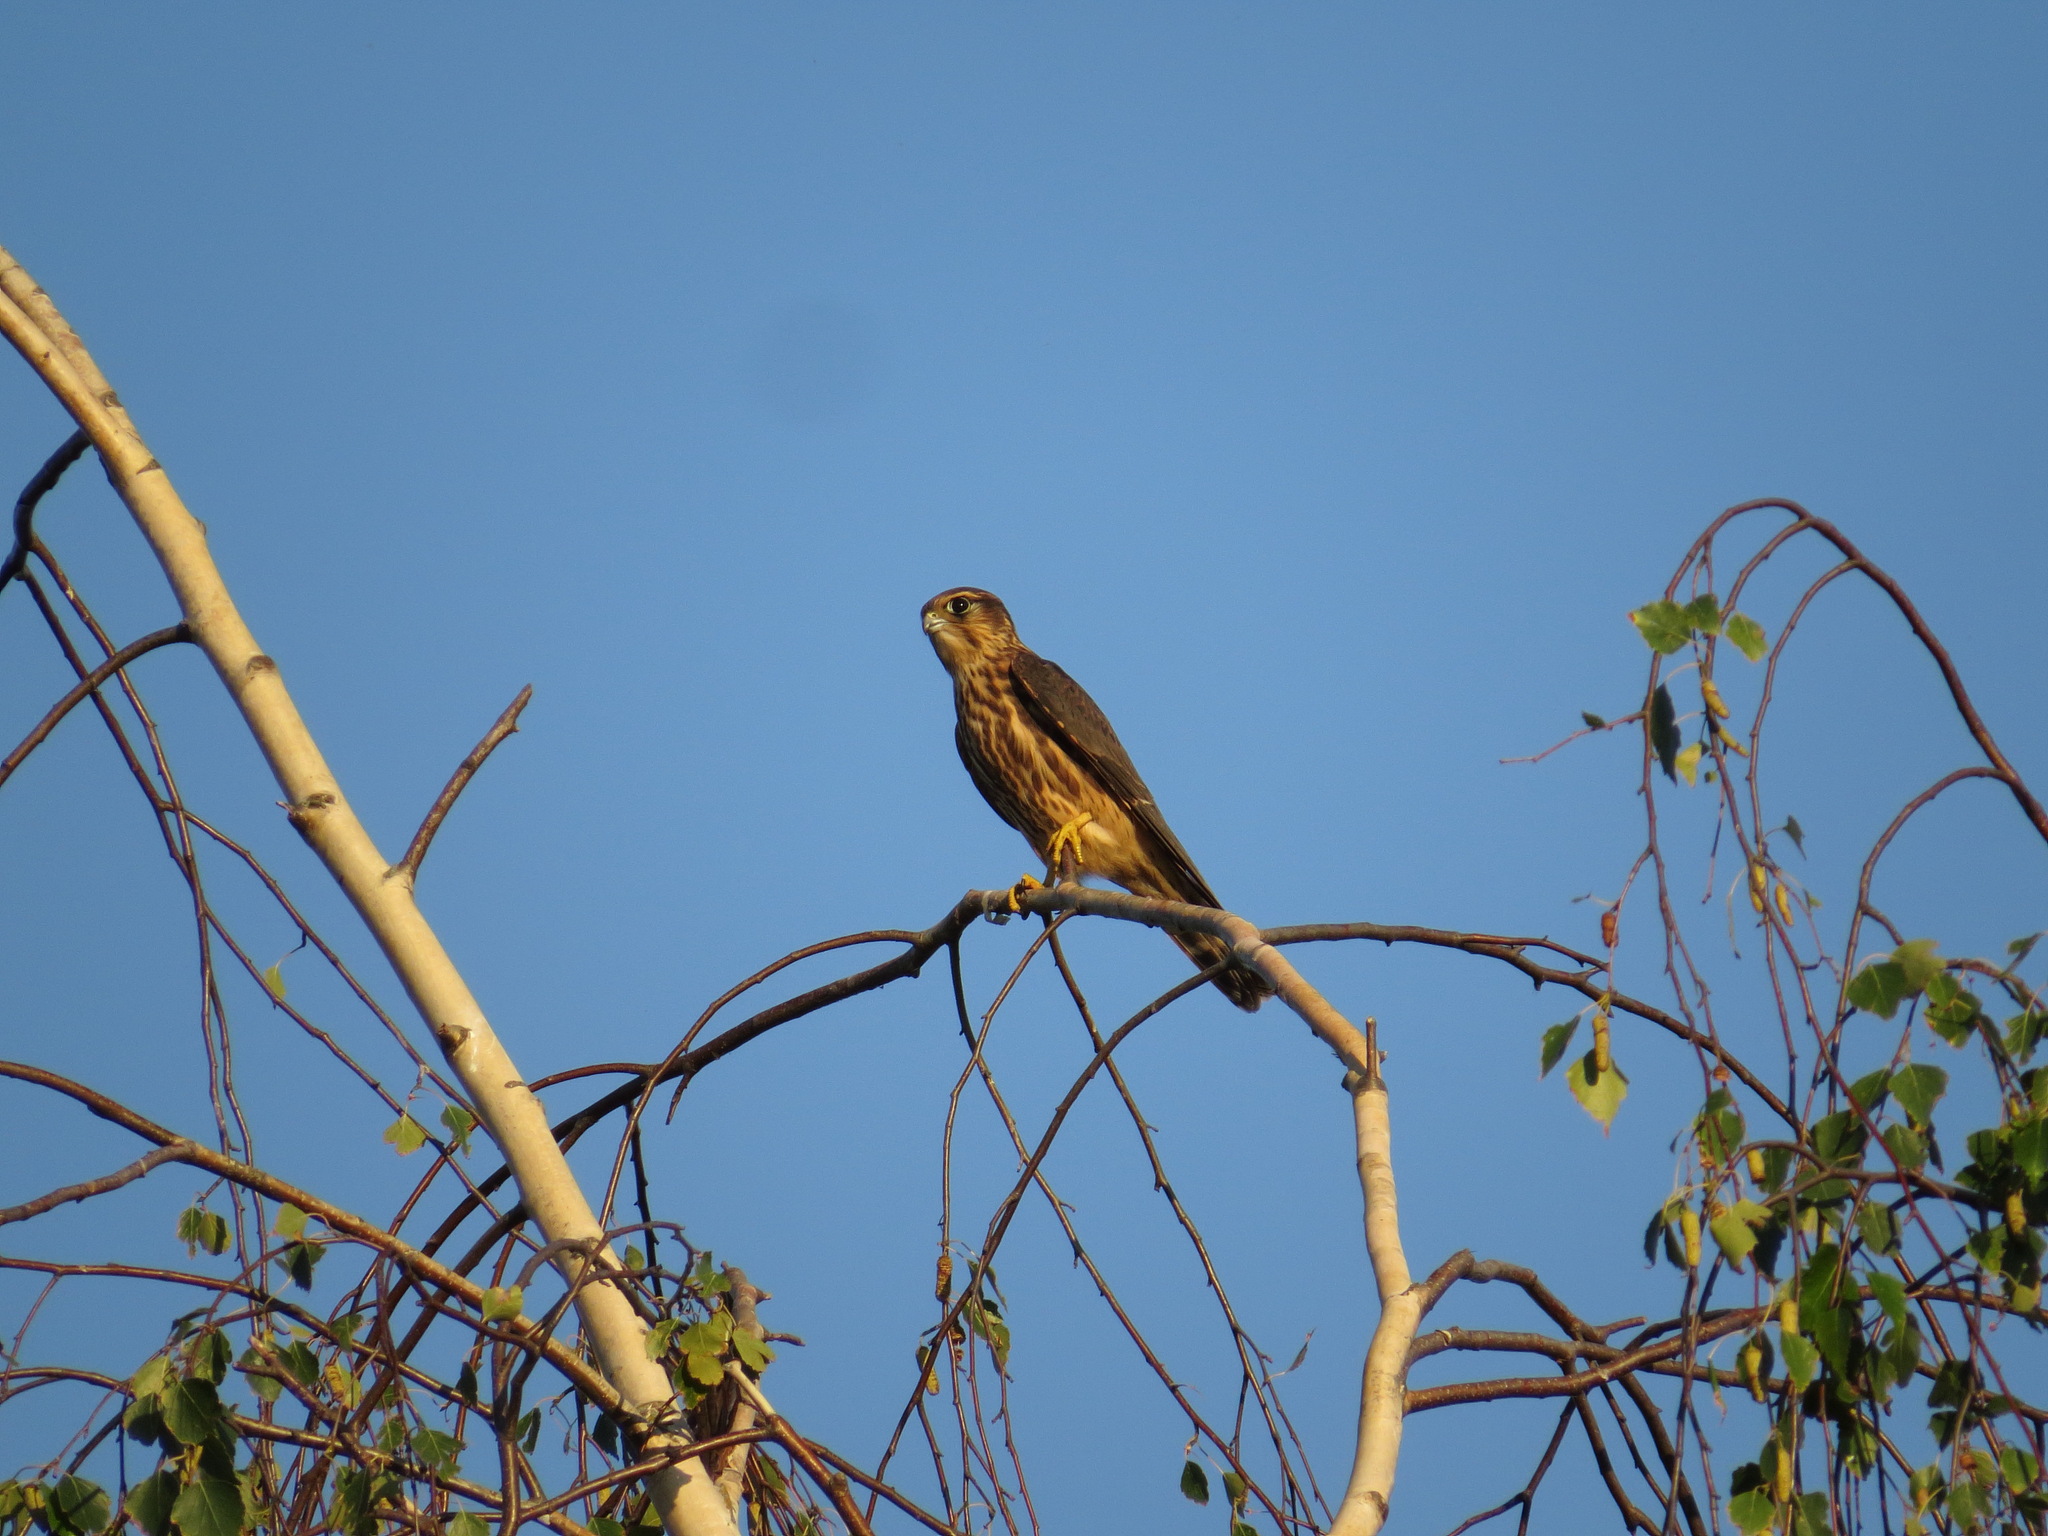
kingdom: Animalia
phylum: Chordata
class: Aves
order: Falconiformes
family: Falconidae
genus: Falco
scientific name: Falco columbarius
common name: Merlin
